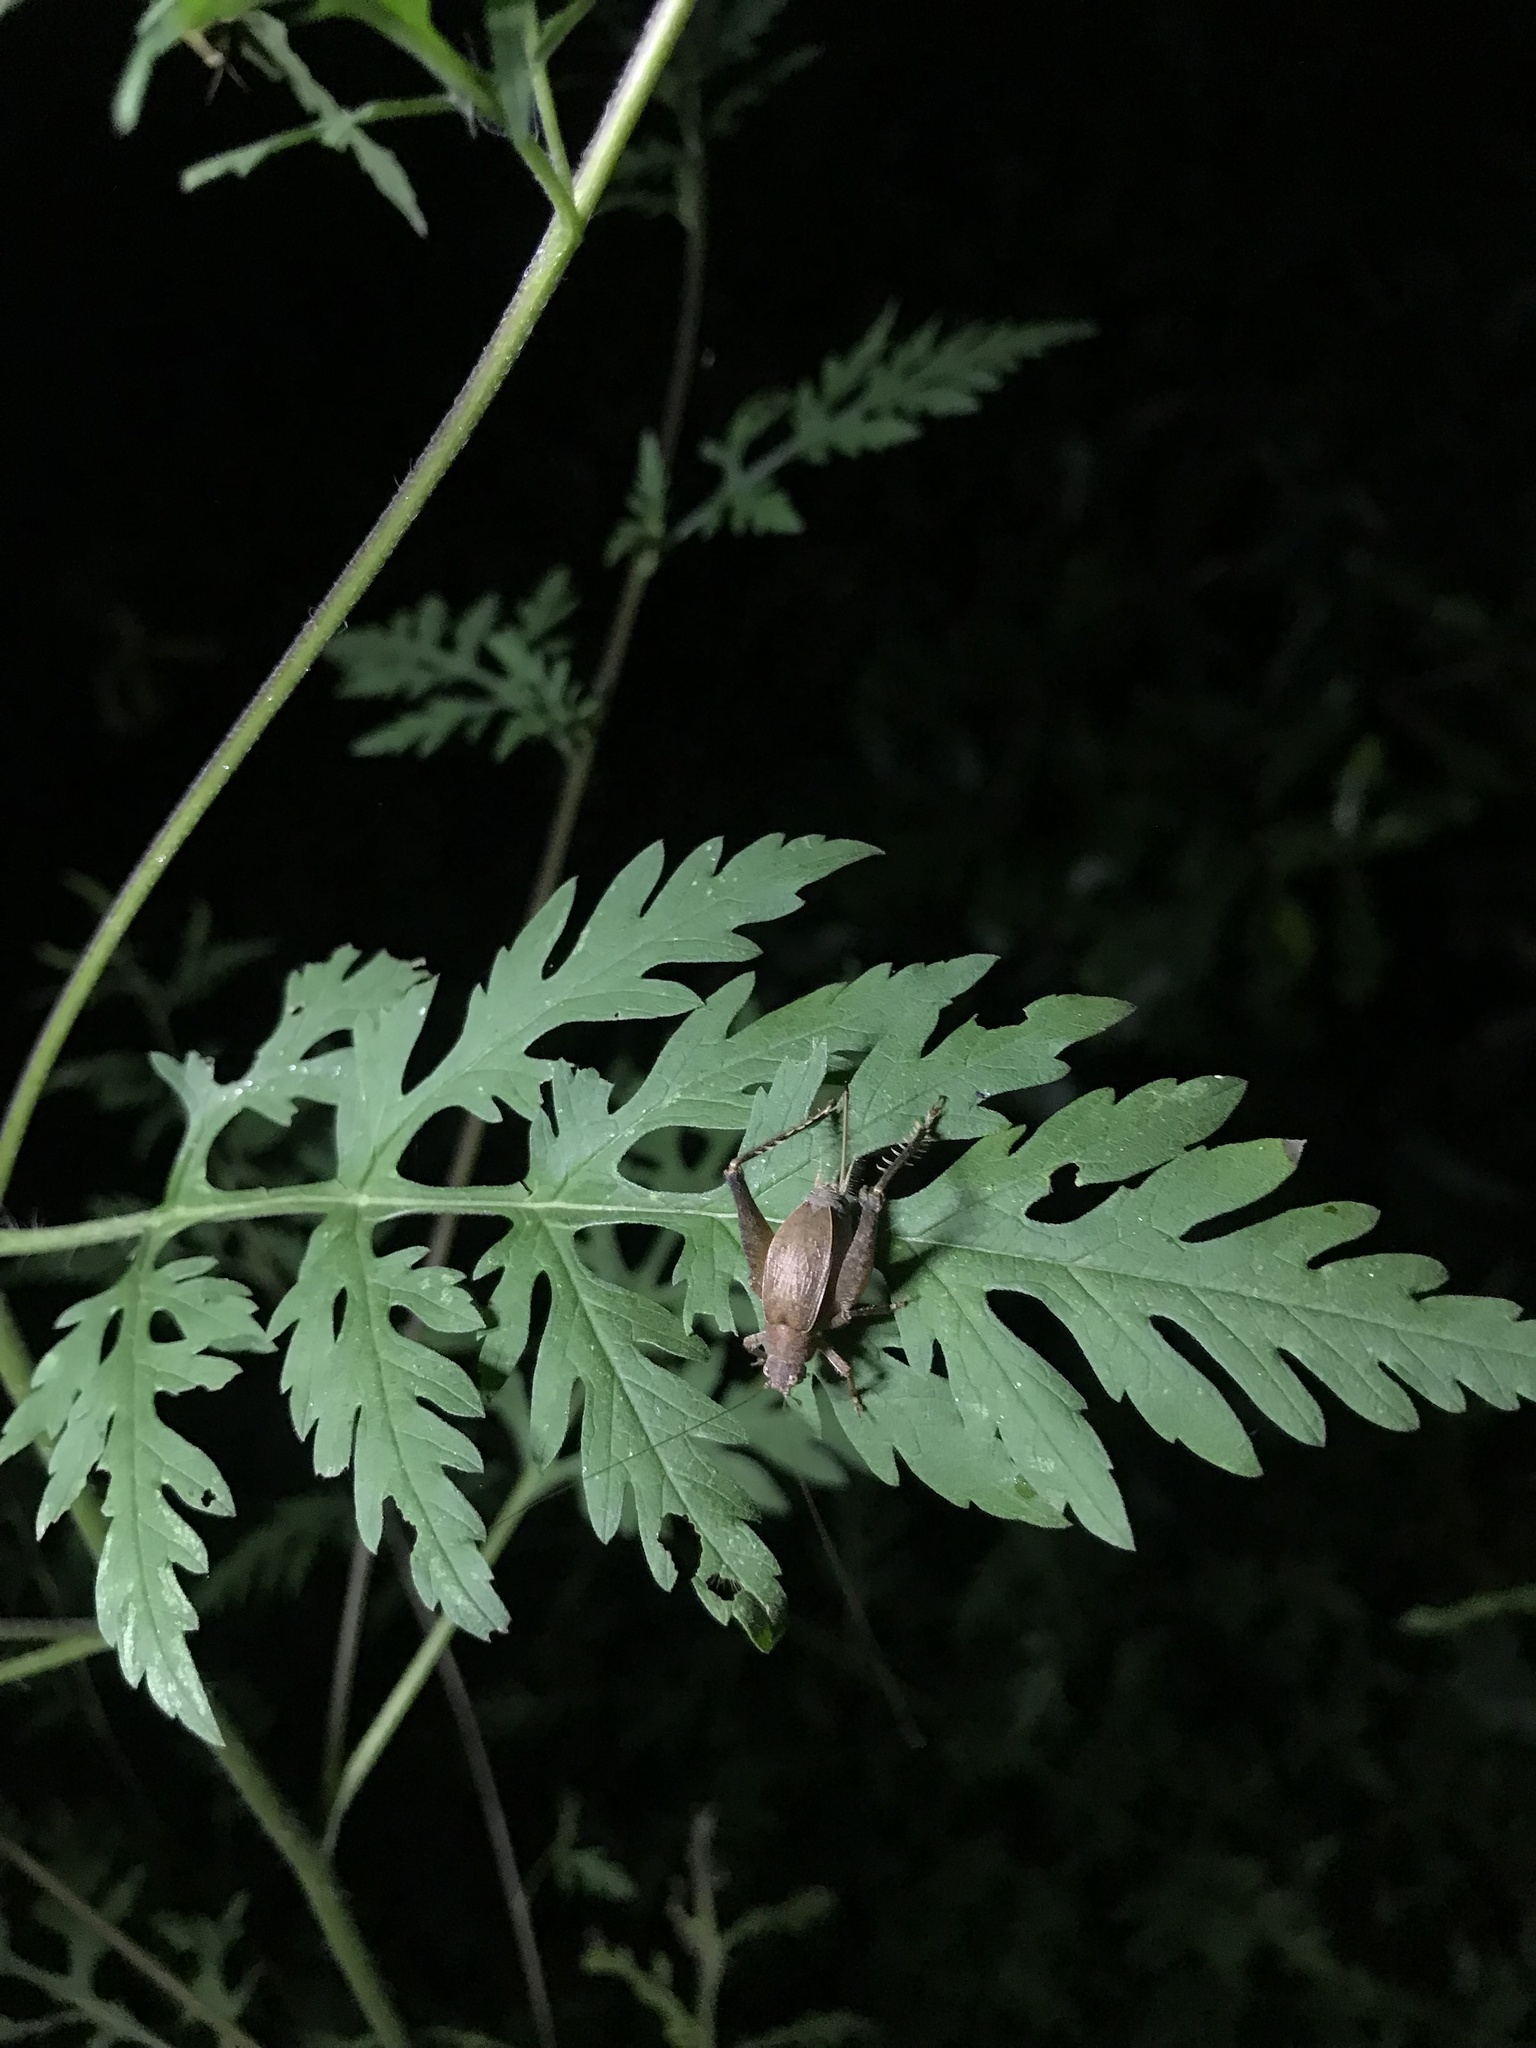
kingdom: Animalia
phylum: Arthropoda
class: Insecta
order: Orthoptera
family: Gryllidae
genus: Hapithus
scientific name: Hapithus agitator
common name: Restless bush cricket
